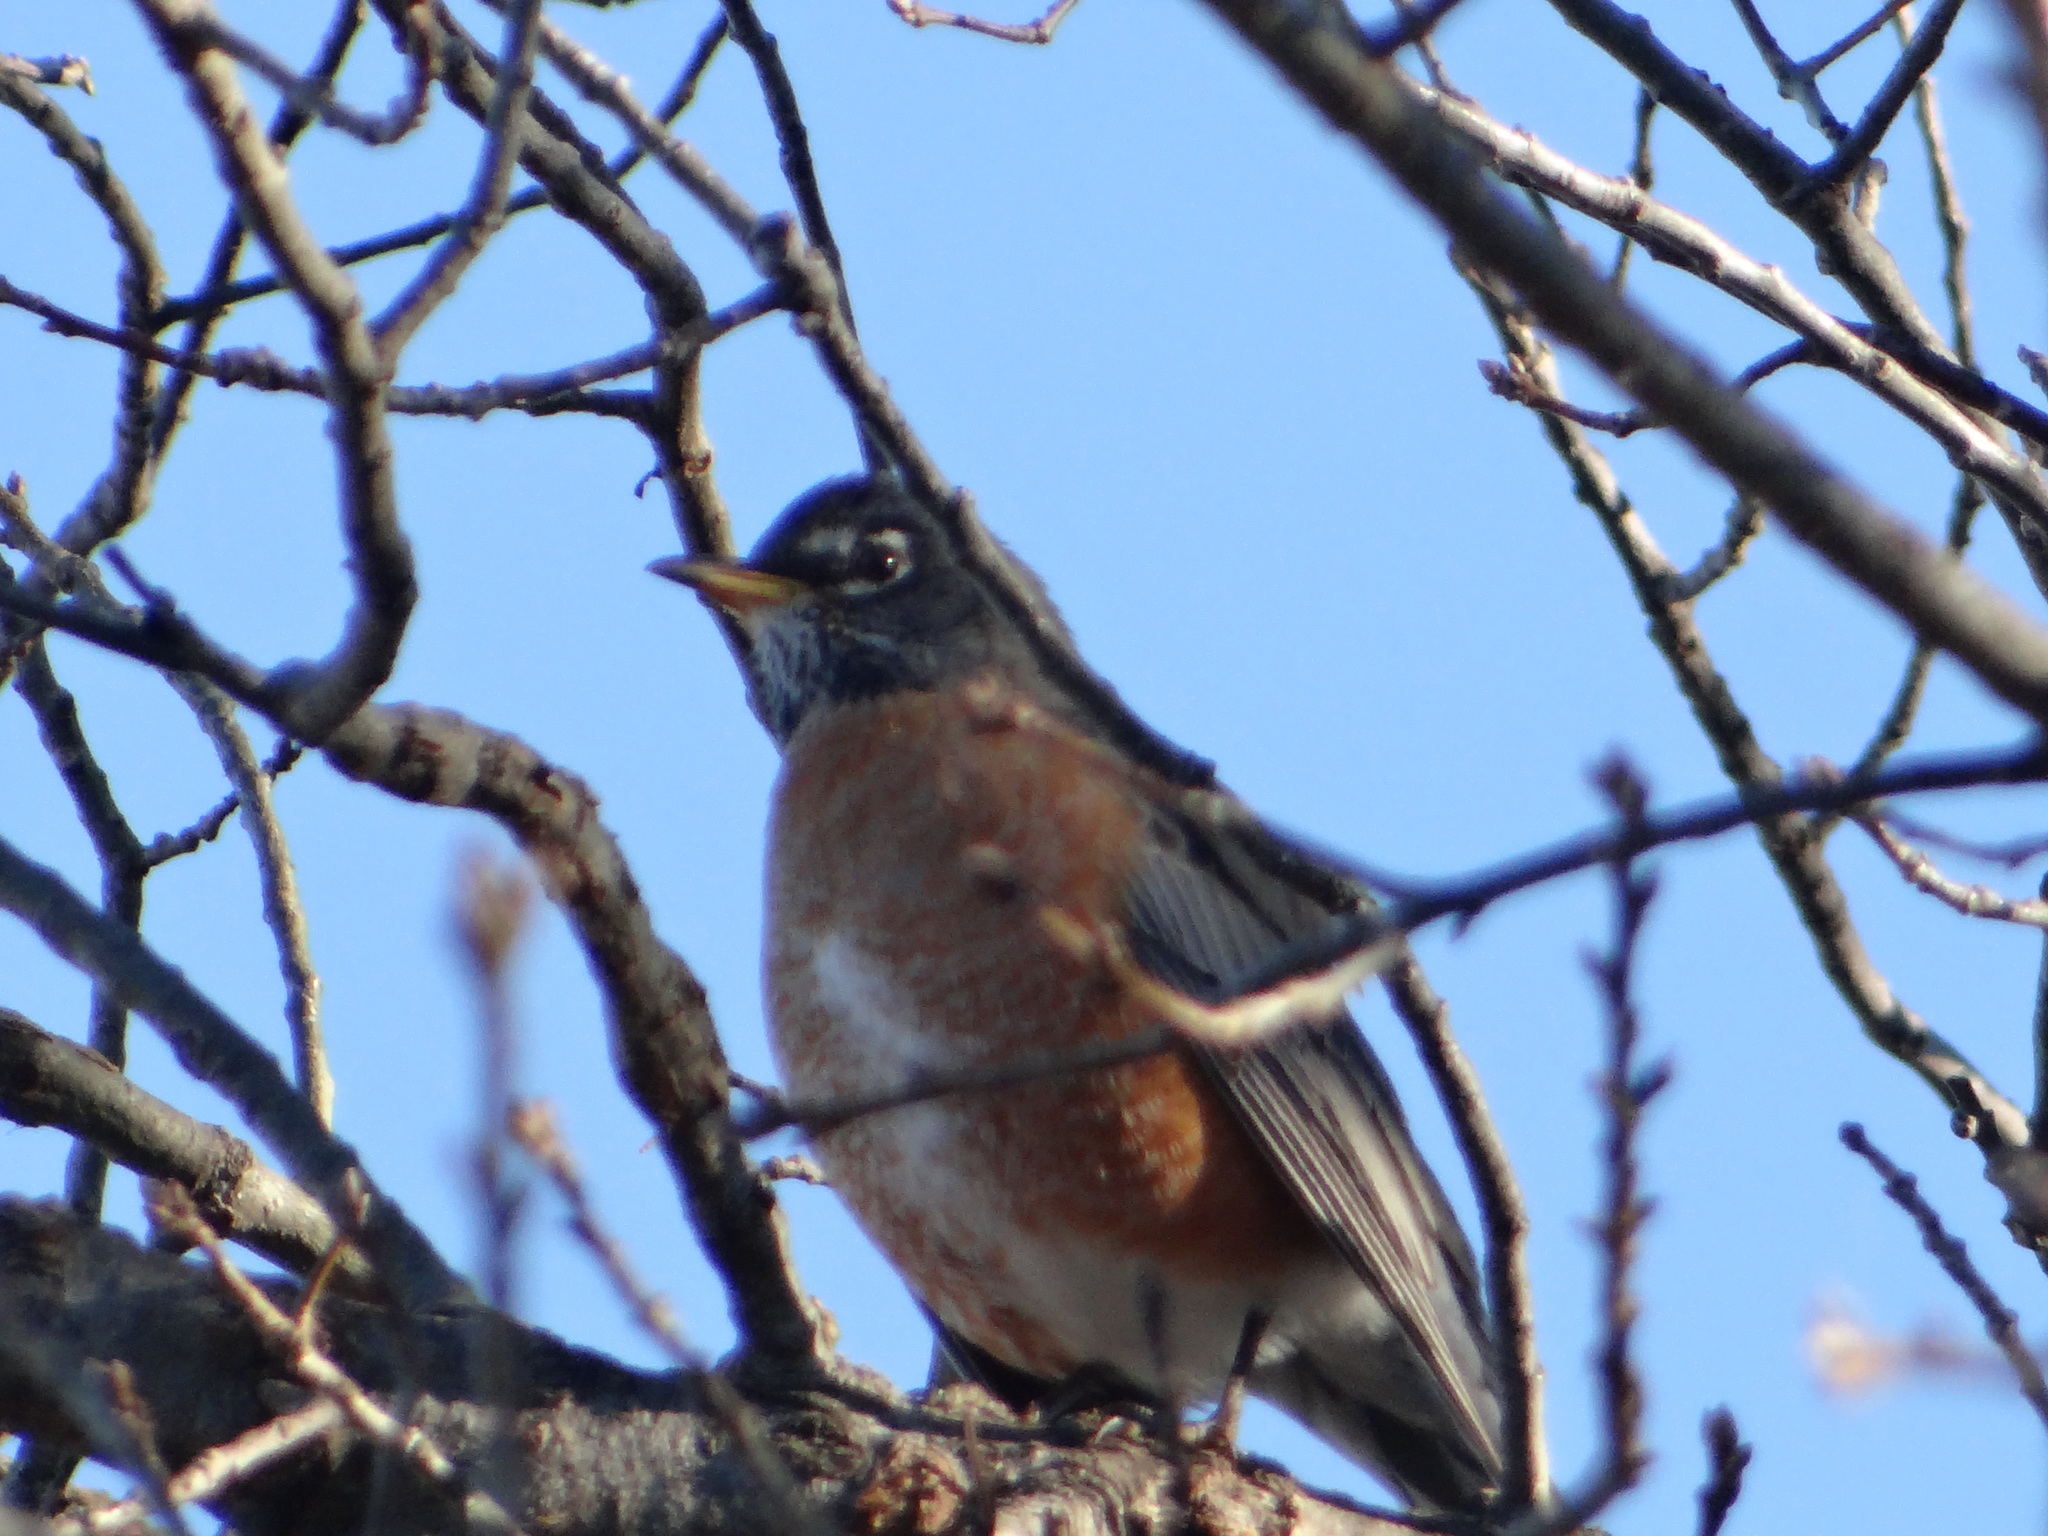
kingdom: Animalia
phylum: Chordata
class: Aves
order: Passeriformes
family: Turdidae
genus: Turdus
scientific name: Turdus migratorius
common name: American robin
